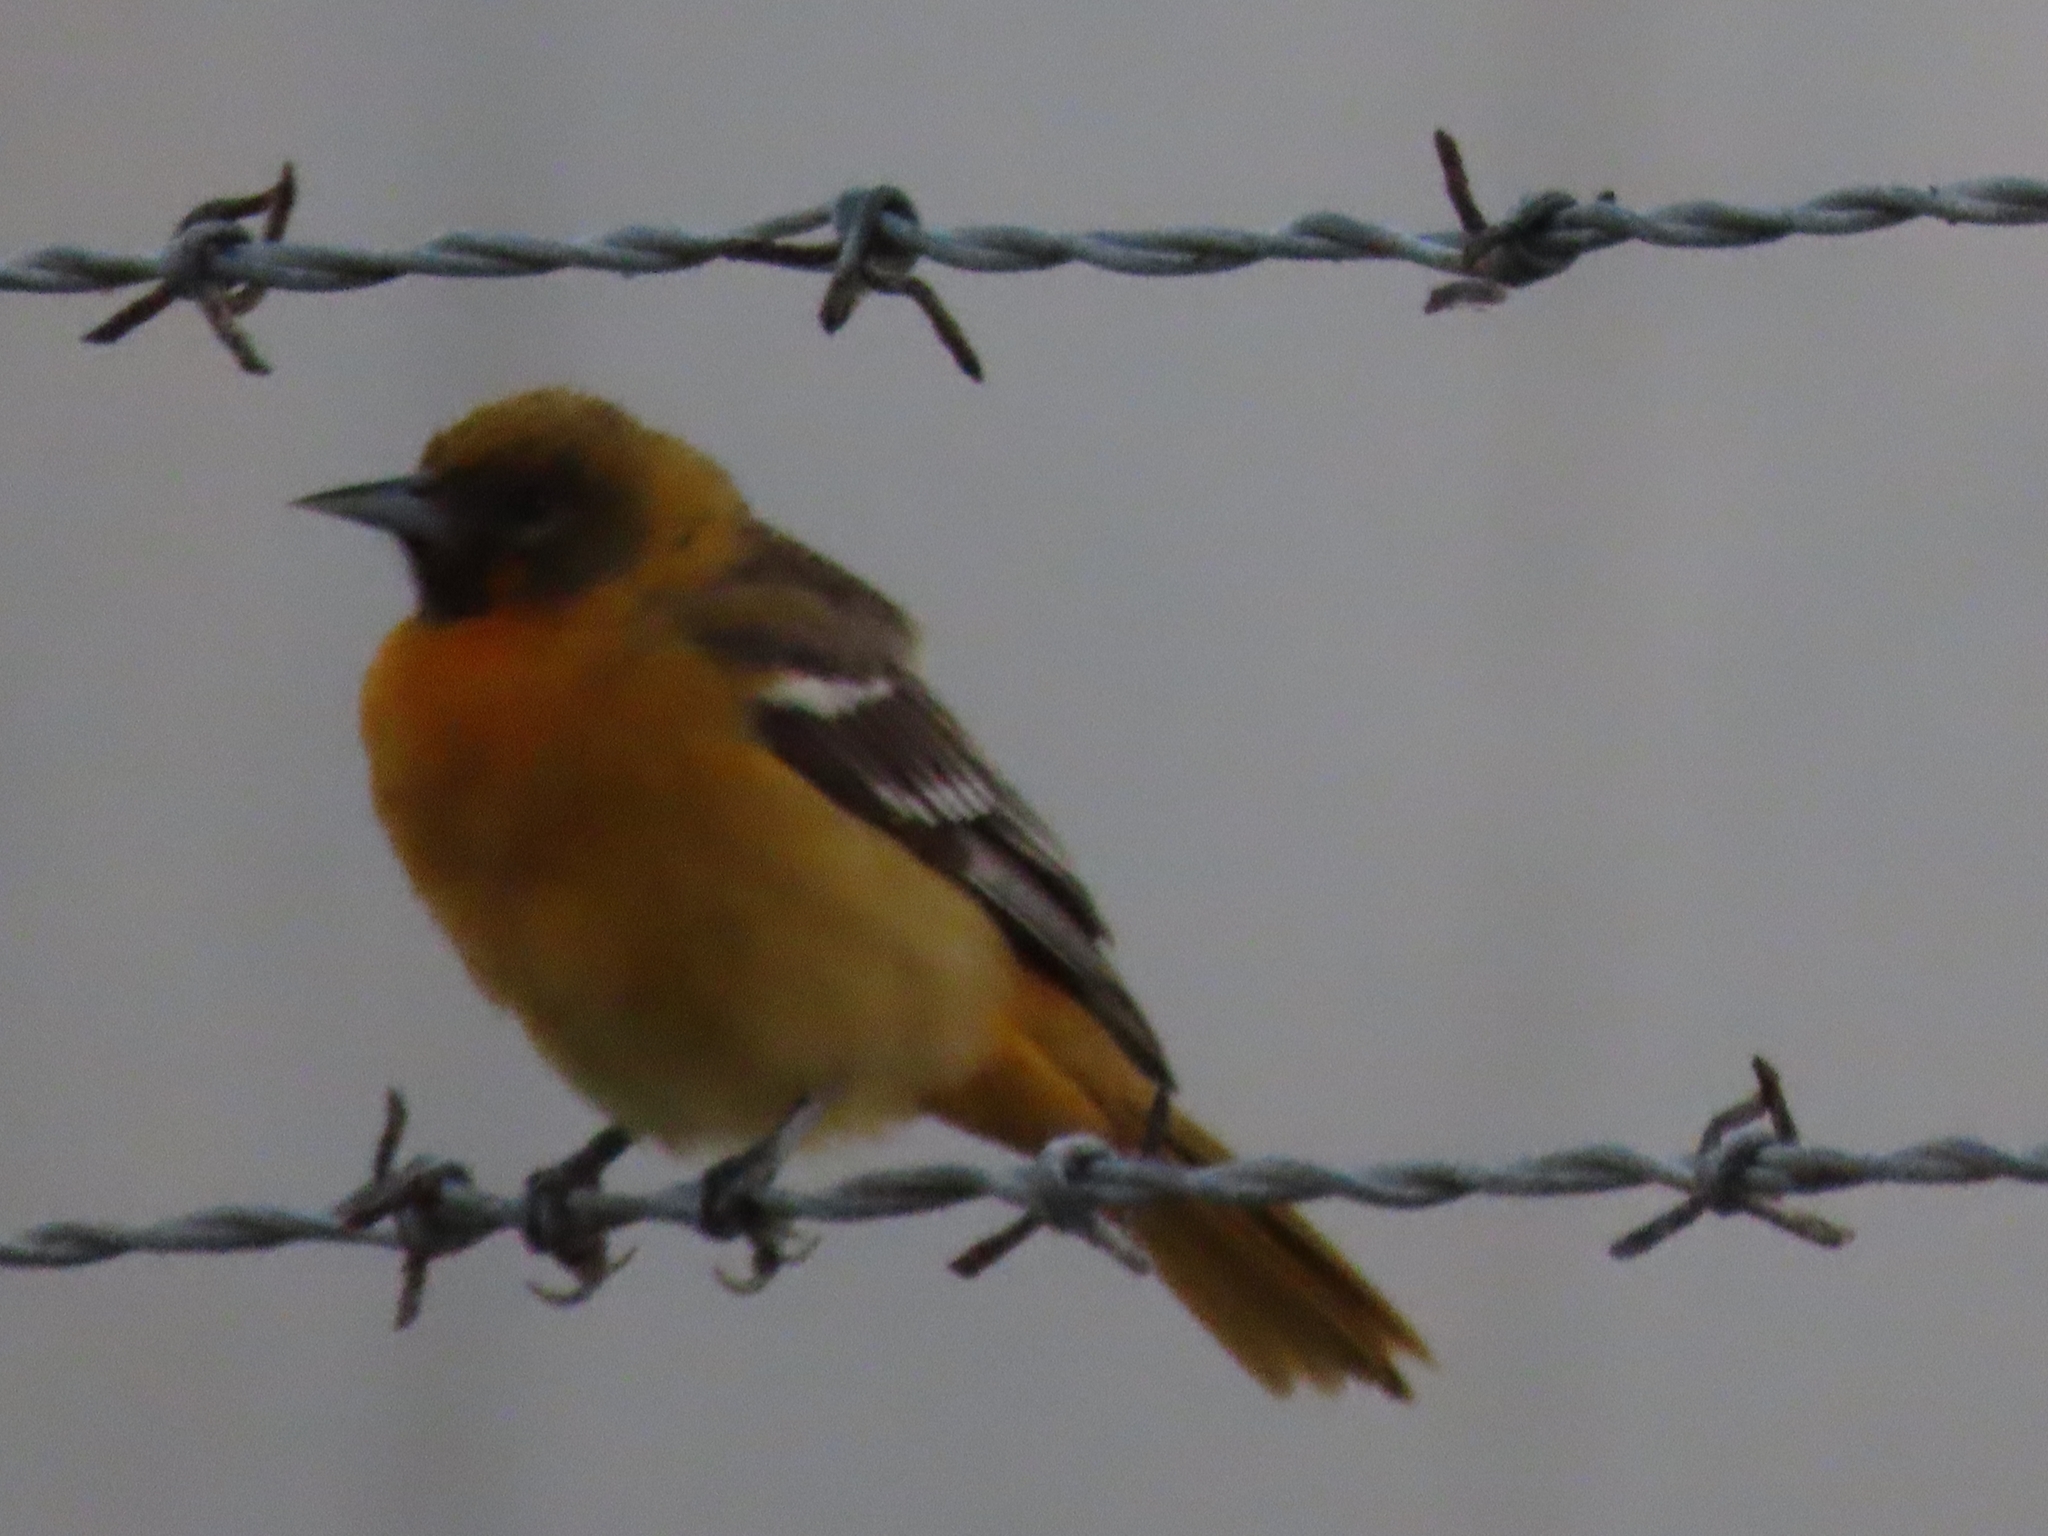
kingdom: Animalia
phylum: Chordata
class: Aves
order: Passeriformes
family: Icteridae
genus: Icterus
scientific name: Icterus galbula
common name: Baltimore oriole
